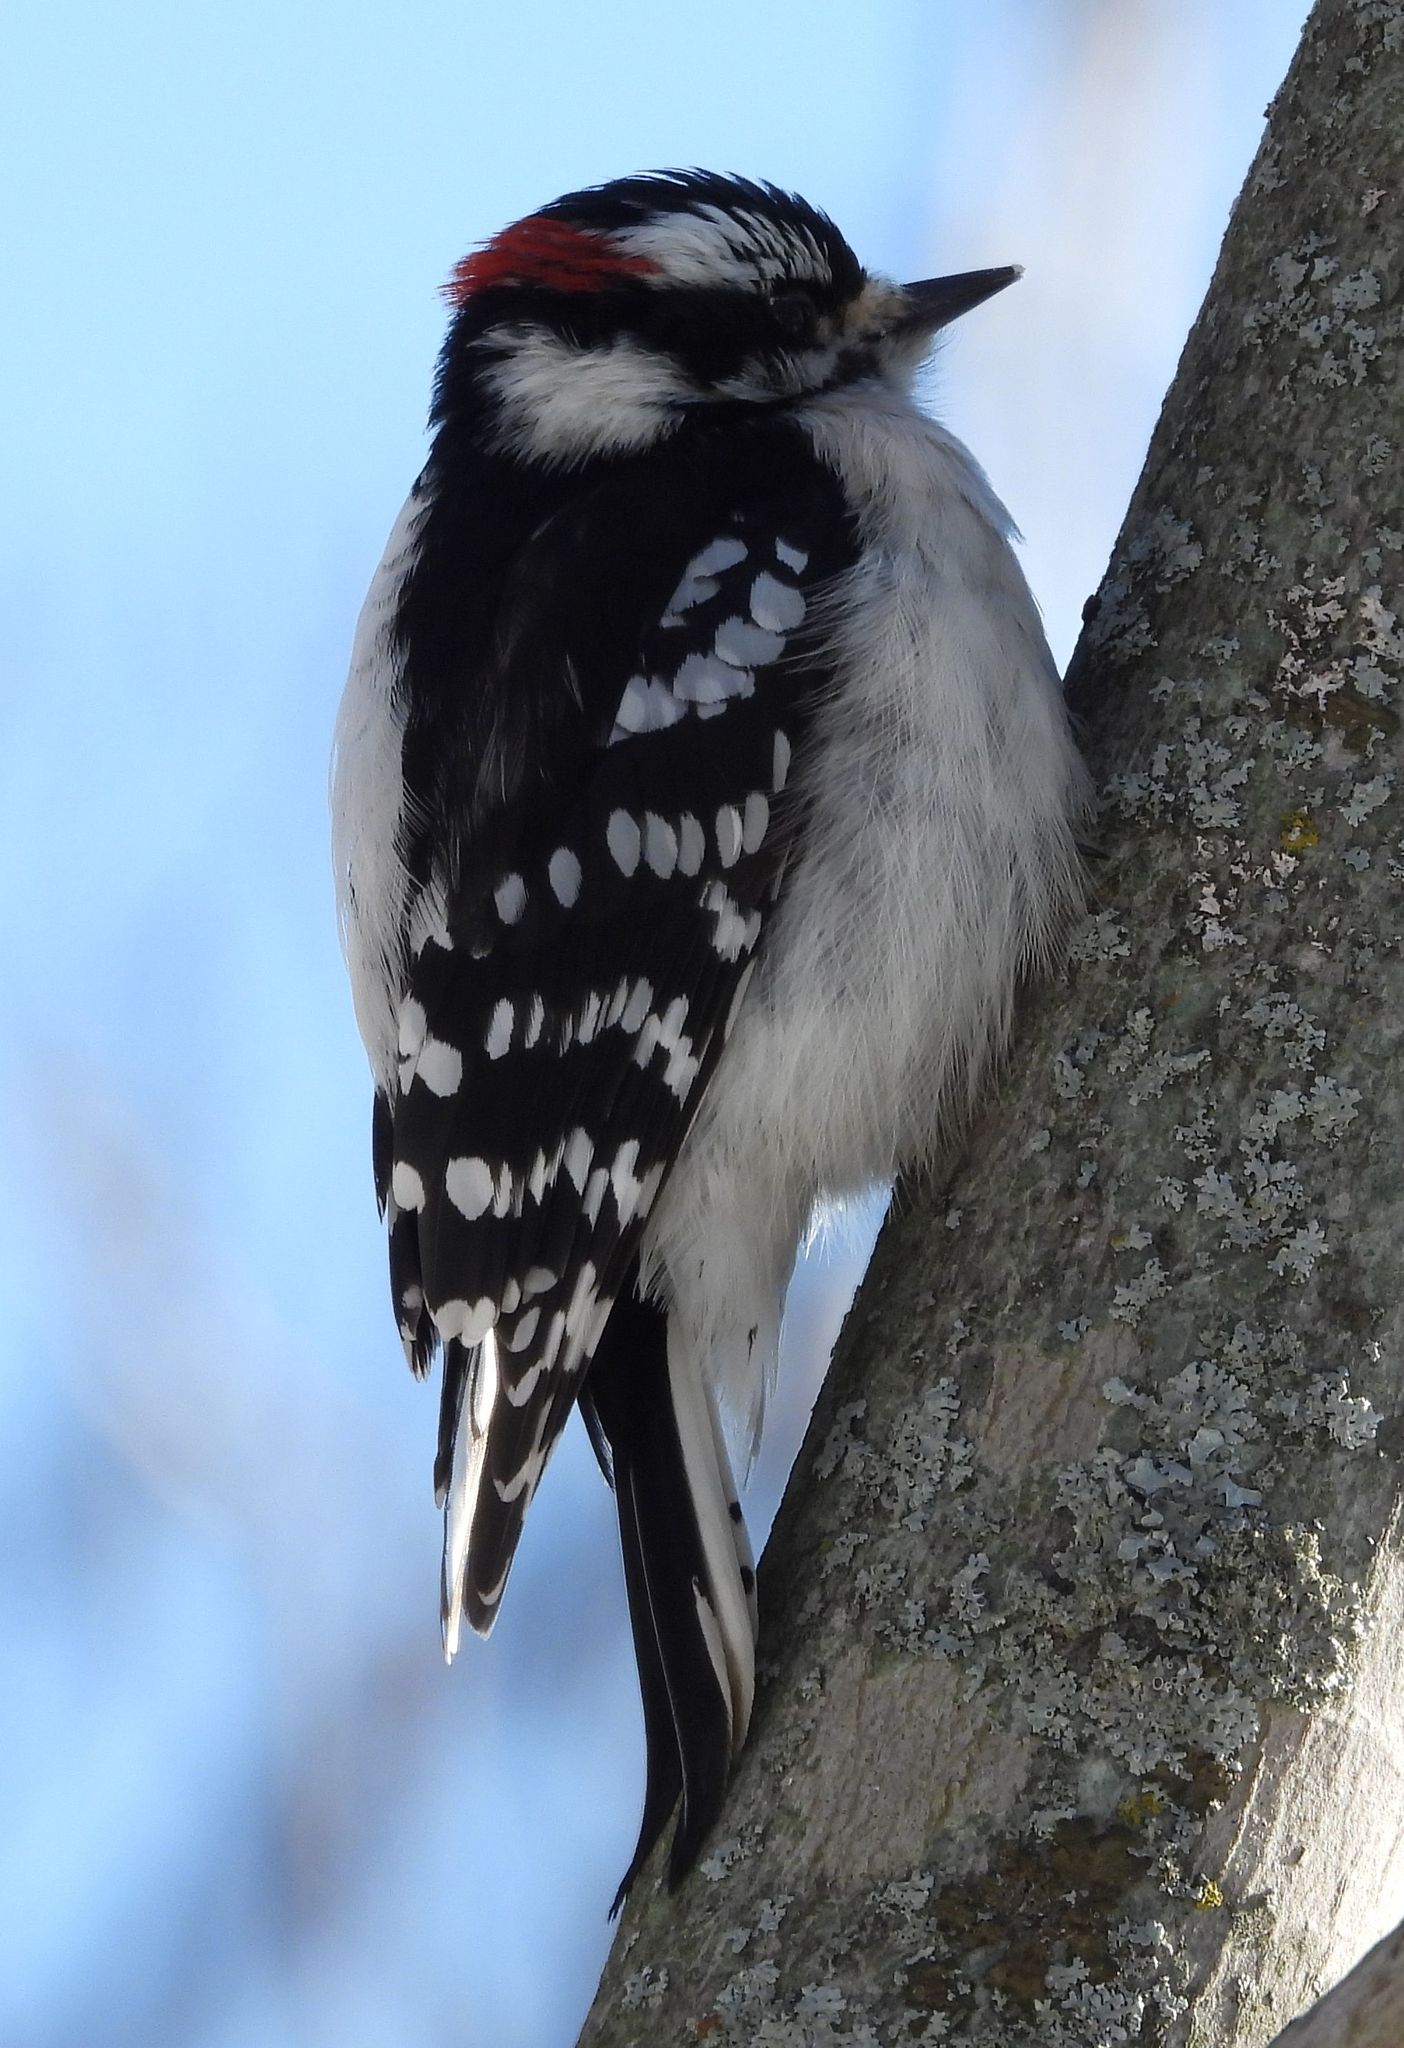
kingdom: Animalia
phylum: Chordata
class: Aves
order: Piciformes
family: Picidae
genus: Dryobates
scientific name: Dryobates pubescens
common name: Downy woodpecker
